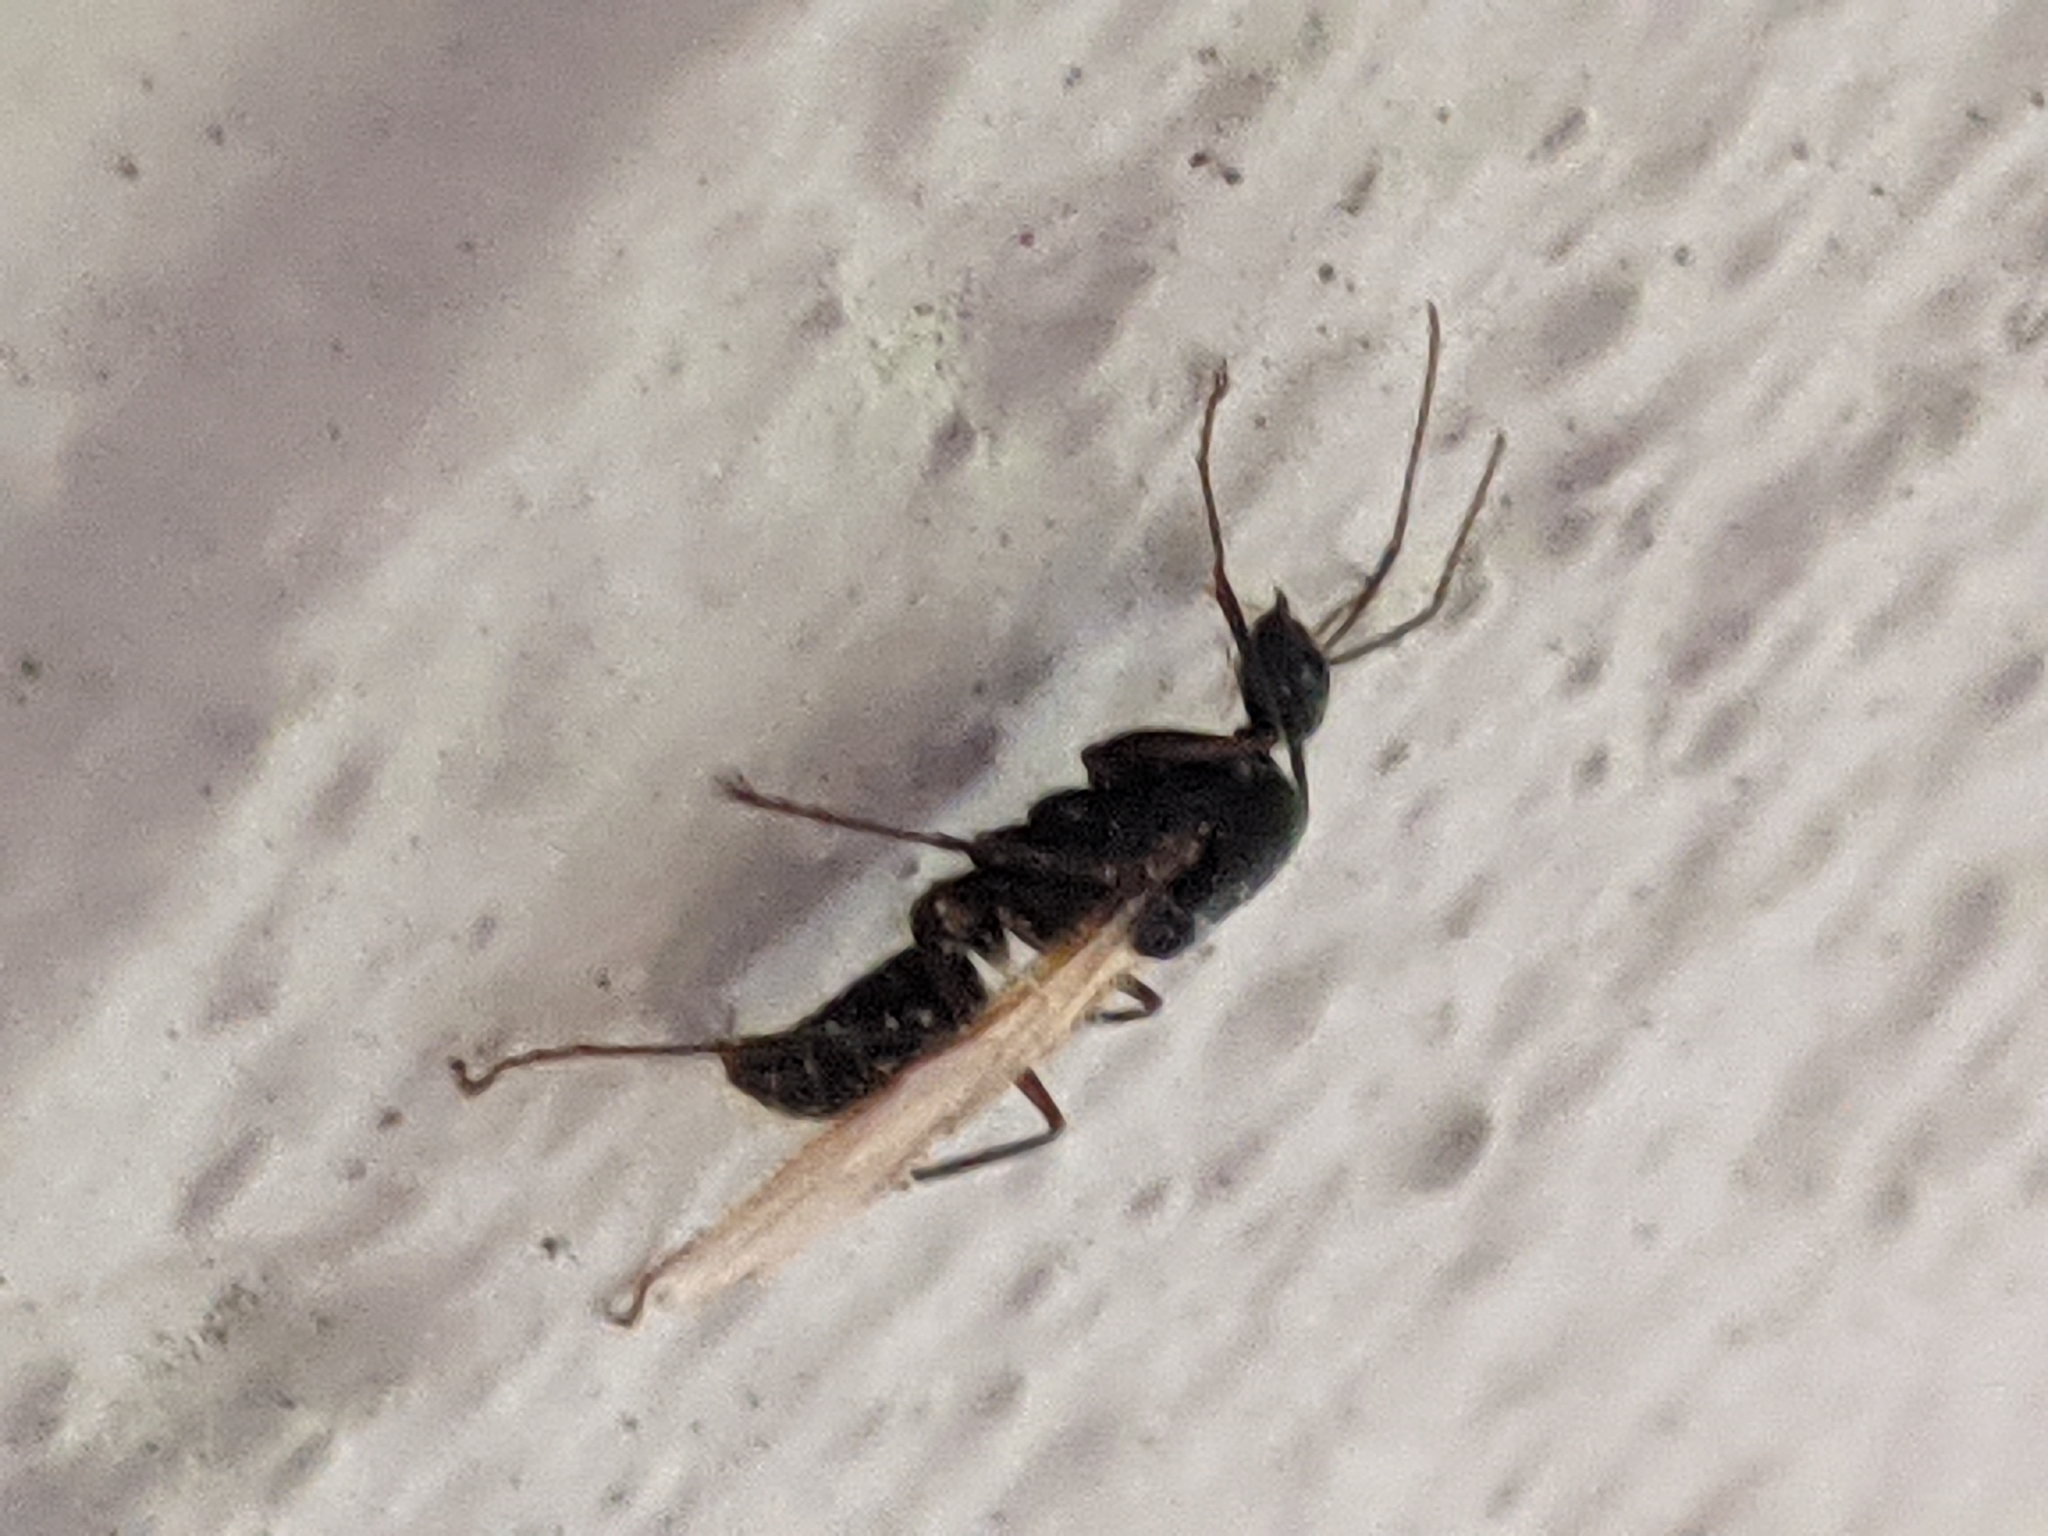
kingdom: Animalia
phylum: Arthropoda
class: Insecta
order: Hymenoptera
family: Formicidae
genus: Camponotus
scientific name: Camponotus pennsylvanicus
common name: Black carpenter ant
